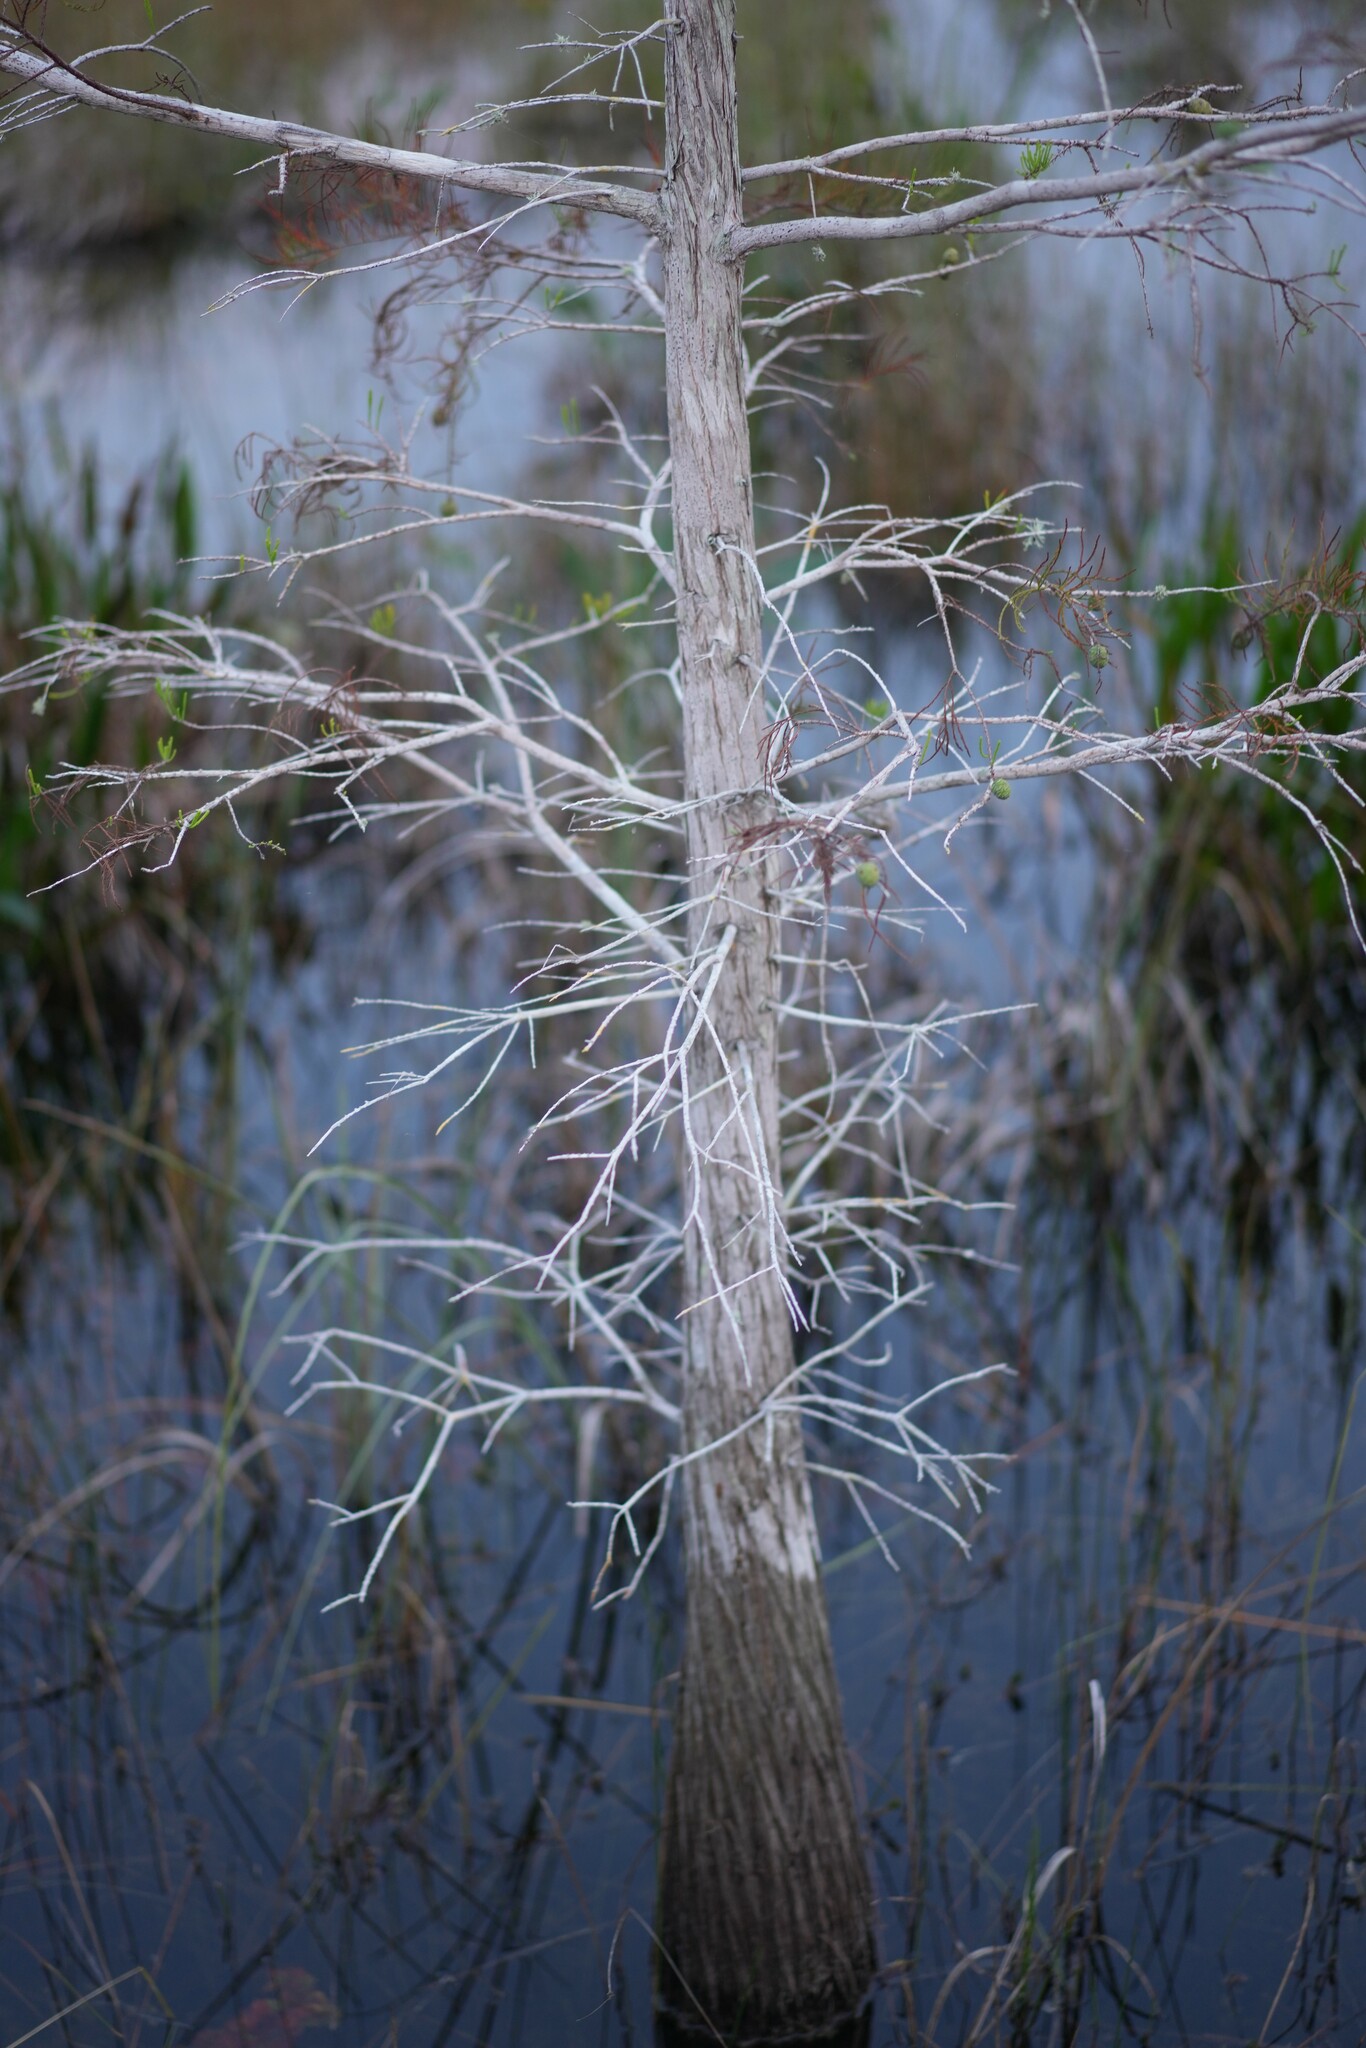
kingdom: Plantae
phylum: Tracheophyta
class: Pinopsida
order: Pinales
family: Cupressaceae
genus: Taxodium
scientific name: Taxodium distichum
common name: Bald cypress
